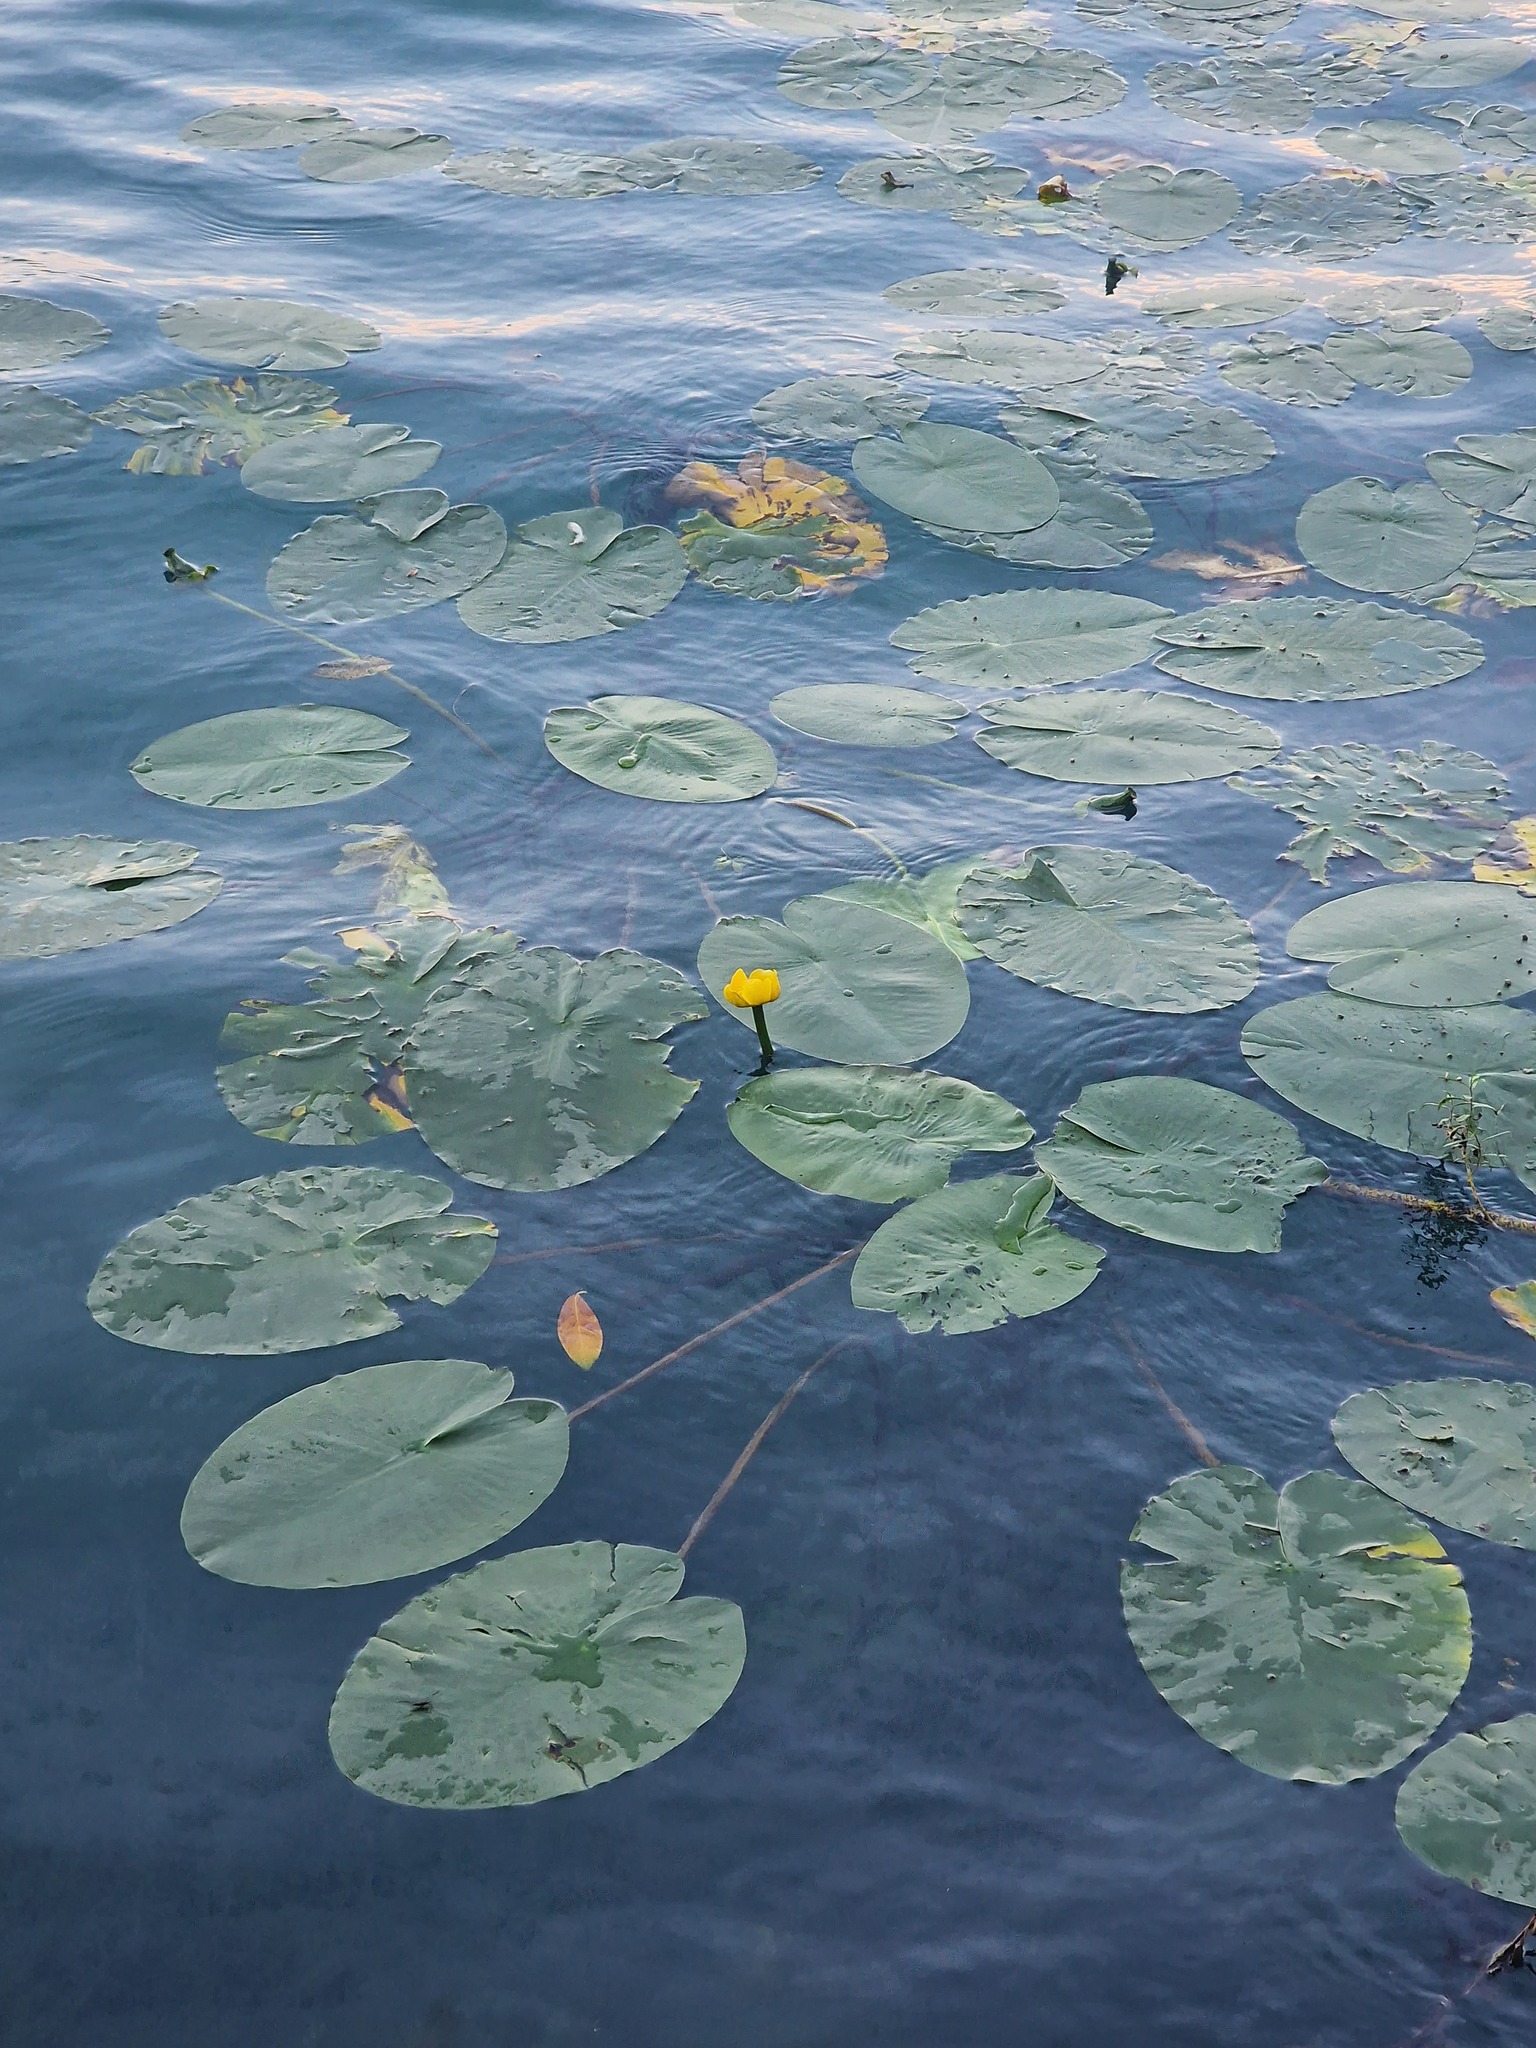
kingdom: Plantae
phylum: Tracheophyta
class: Magnoliopsida
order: Nymphaeales
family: Nymphaeaceae
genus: Nuphar
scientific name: Nuphar lutea
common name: Yellow water-lily
